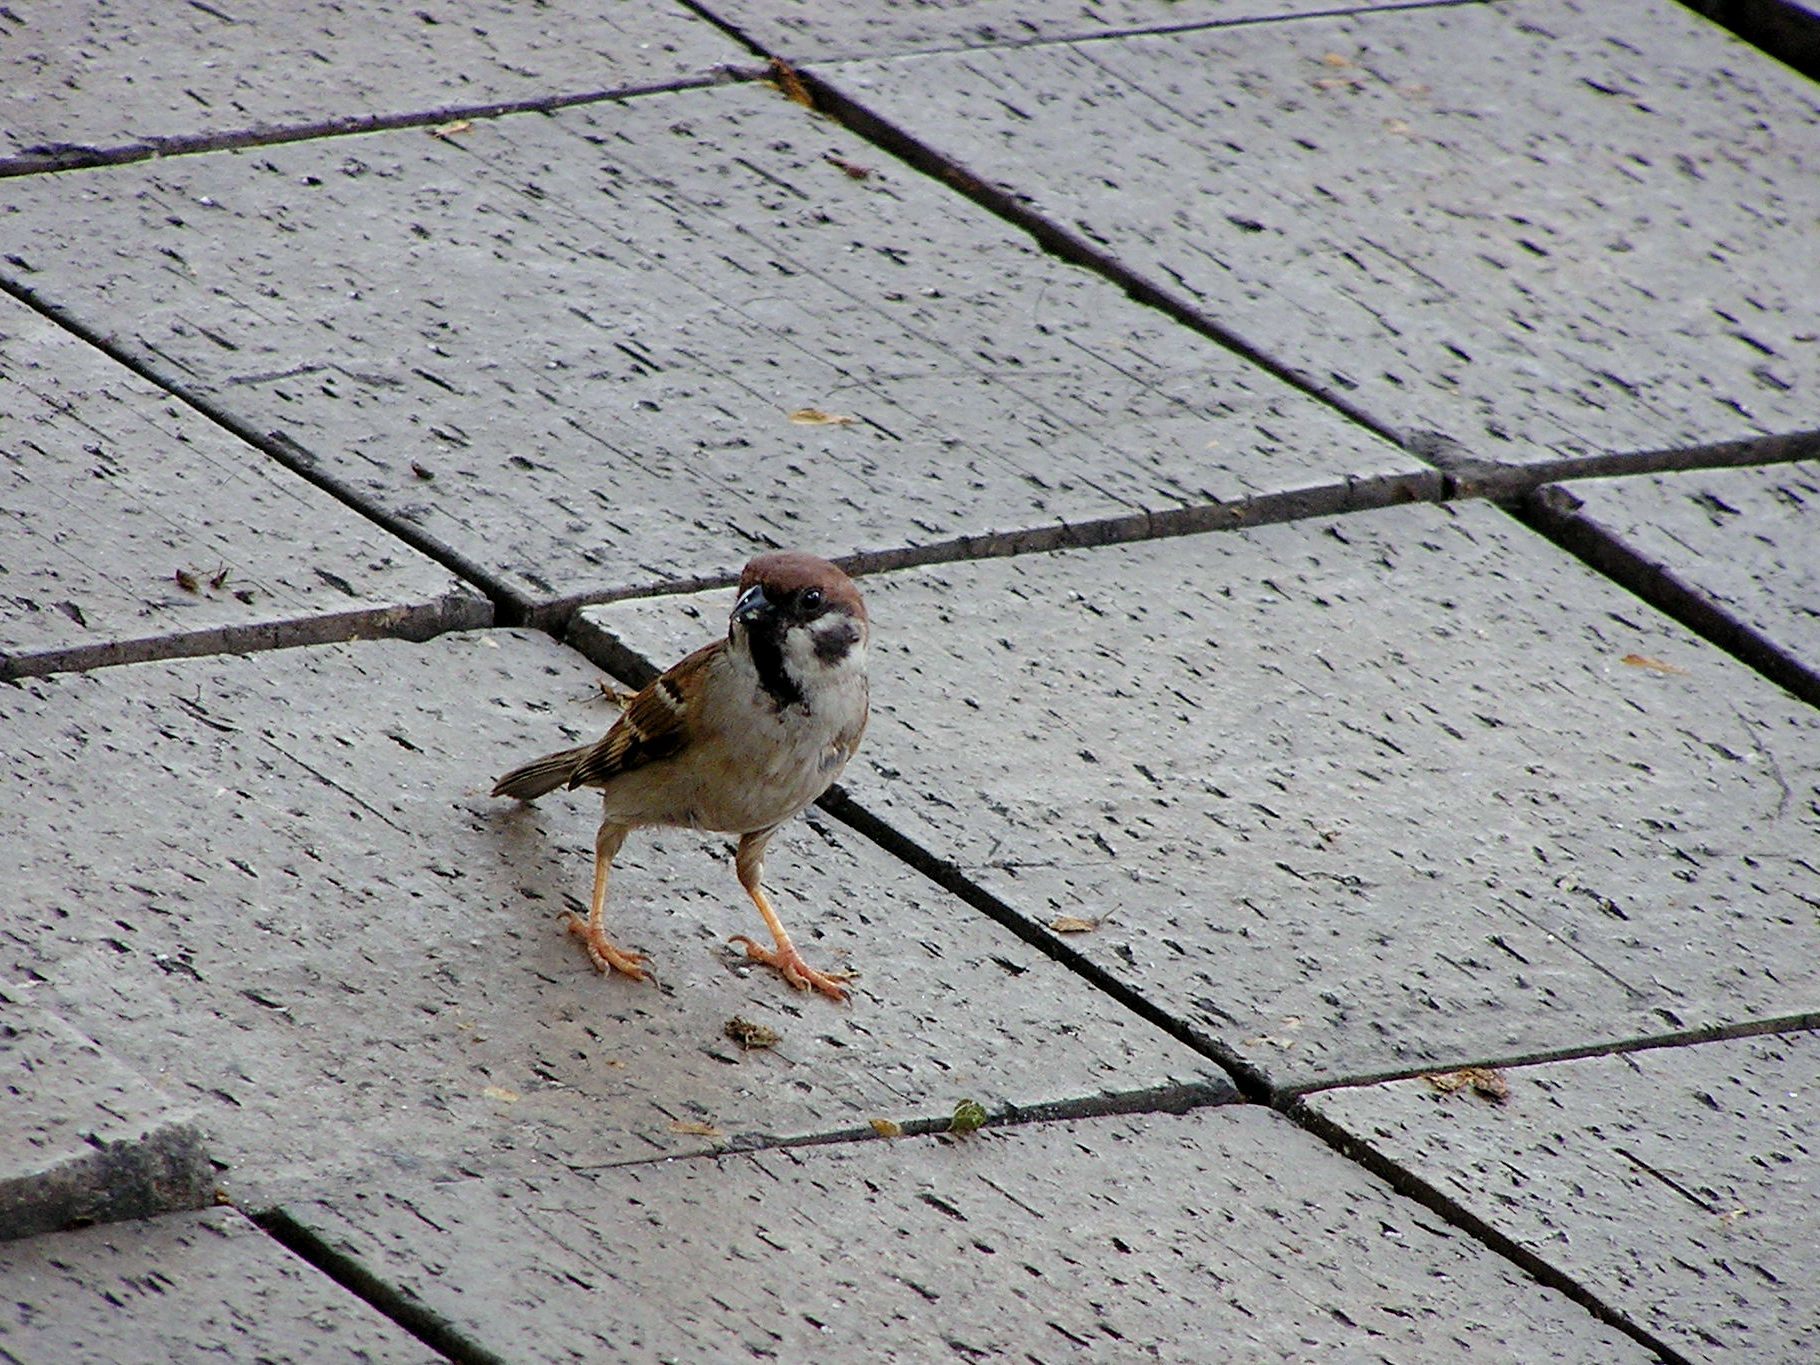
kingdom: Animalia
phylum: Chordata
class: Aves
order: Passeriformes
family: Passeridae
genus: Passer
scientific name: Passer montanus
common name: Eurasian tree sparrow
